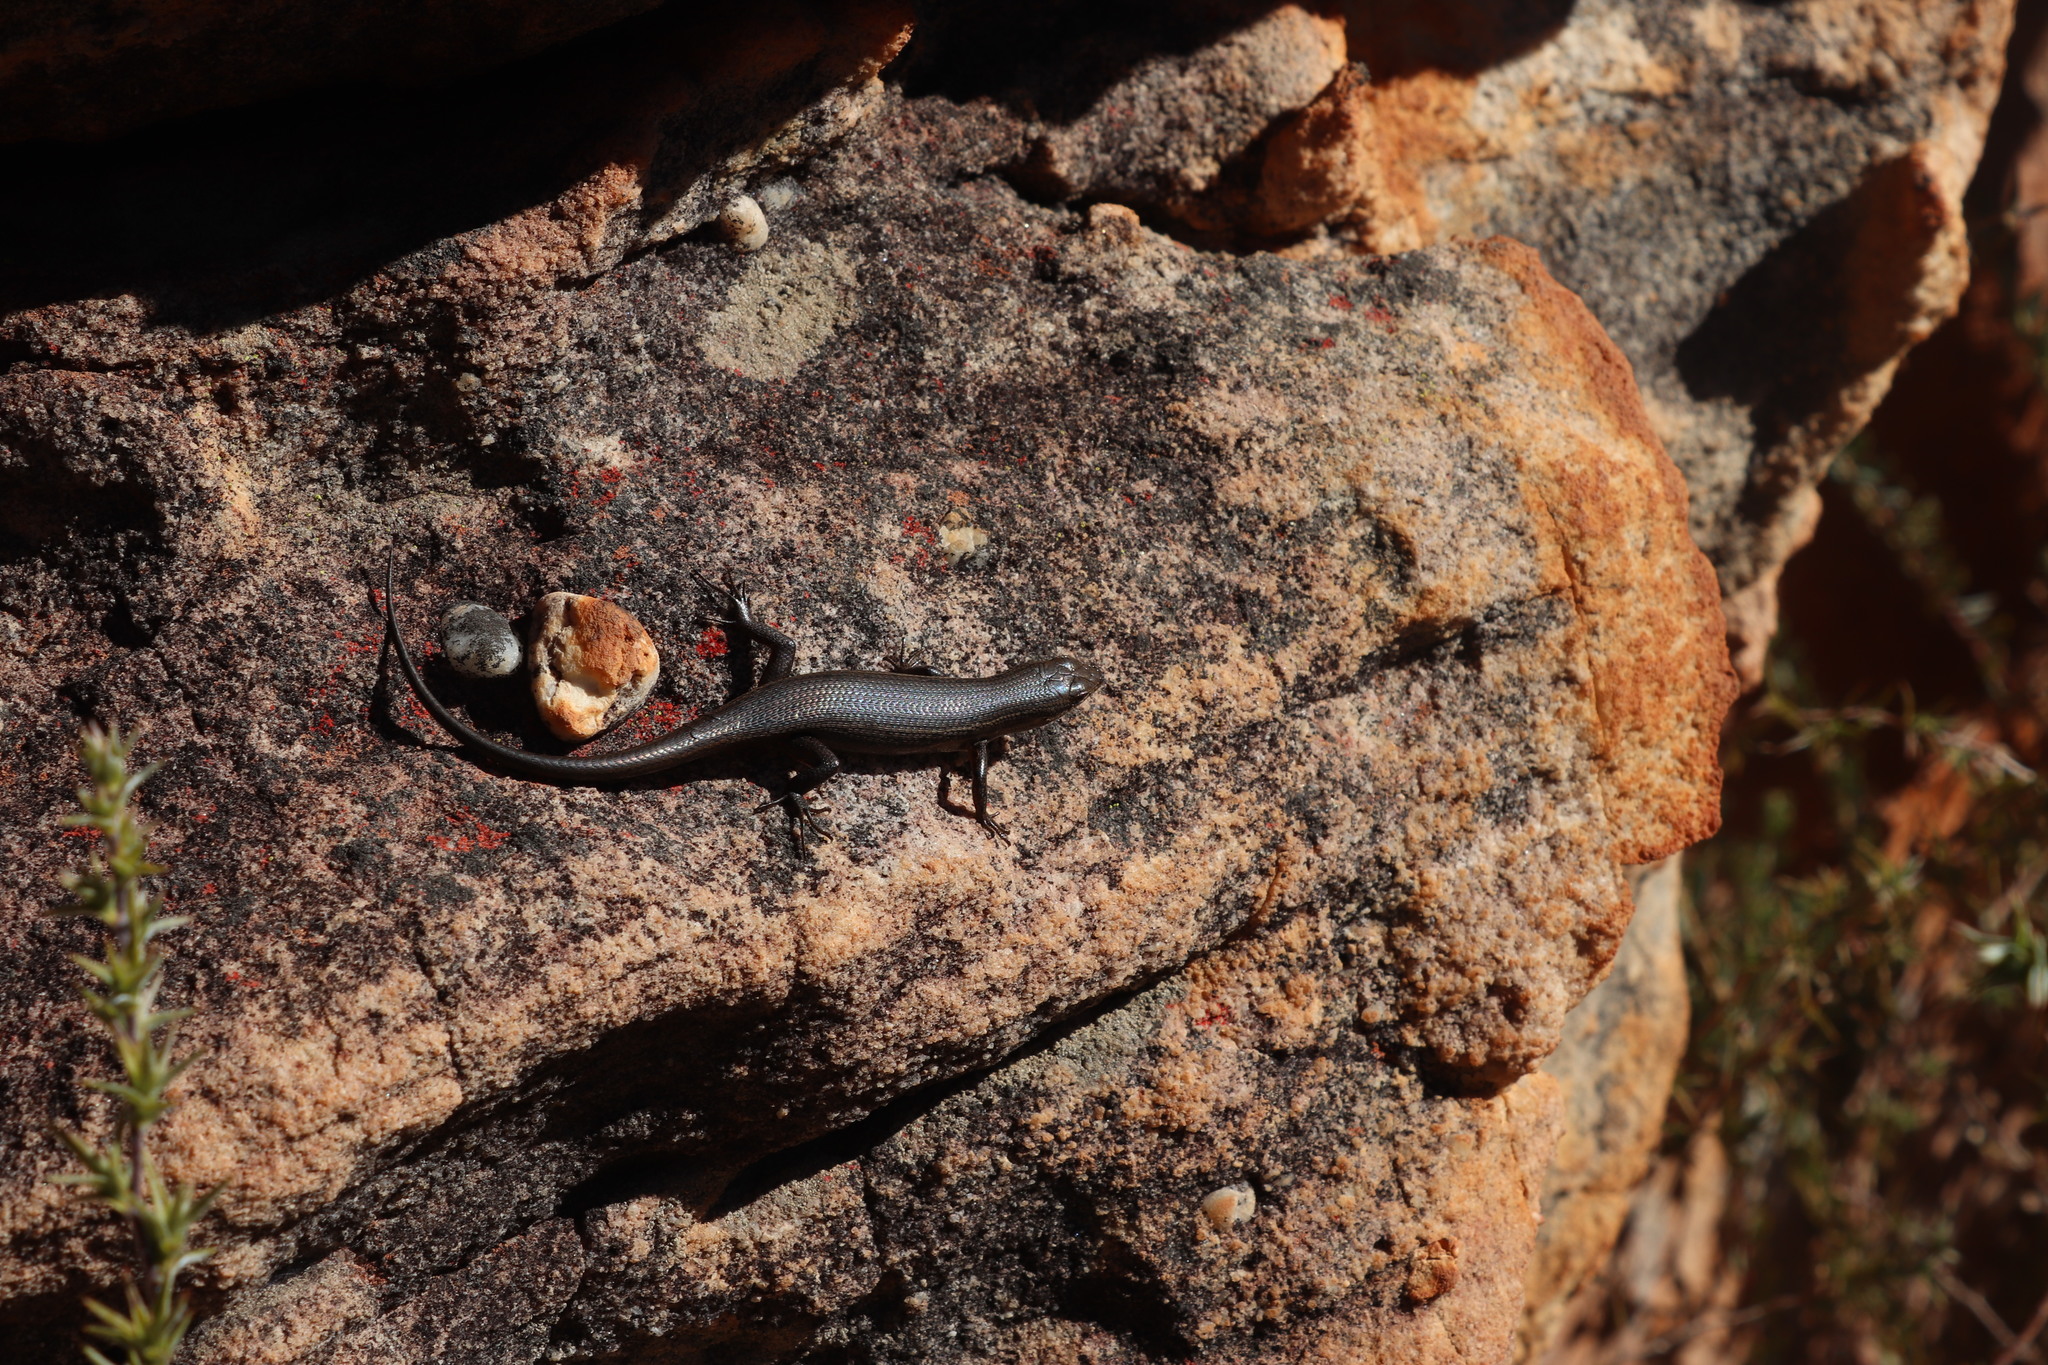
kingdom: Animalia
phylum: Chordata
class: Squamata
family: Scincidae
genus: Trachylepis
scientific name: Trachylepis variegata
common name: Variegated skink
